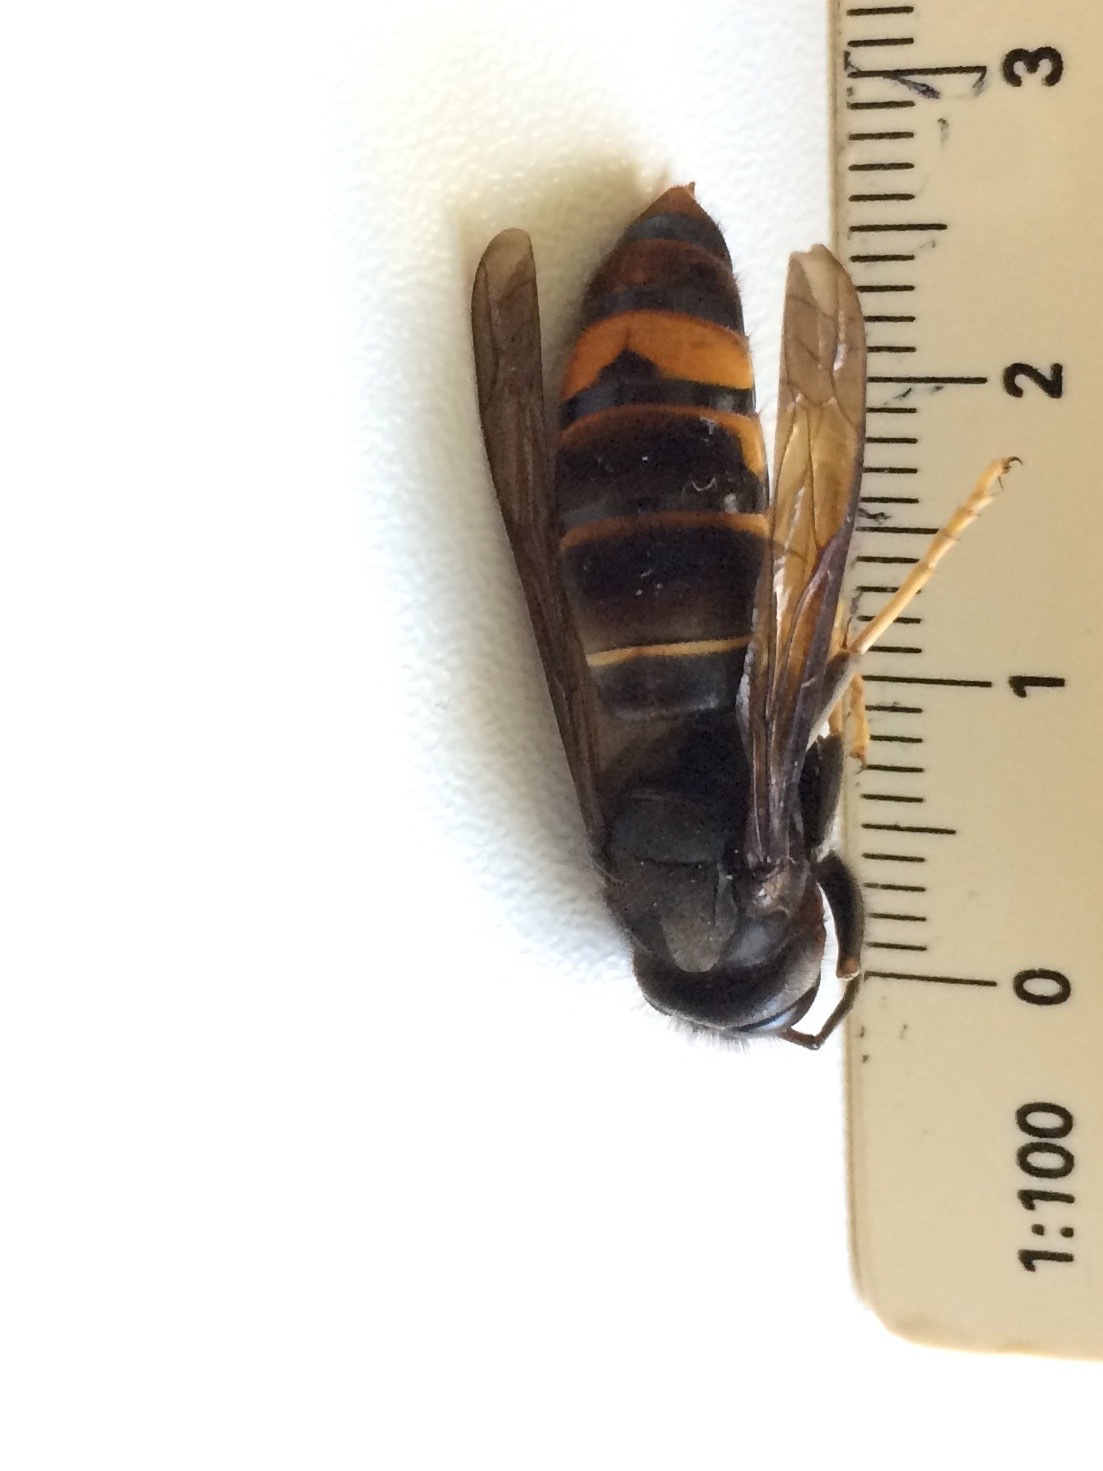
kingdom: Animalia
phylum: Arthropoda
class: Insecta
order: Hymenoptera
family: Vespidae
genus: Vespa
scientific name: Vespa velutina
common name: Asian hornet
